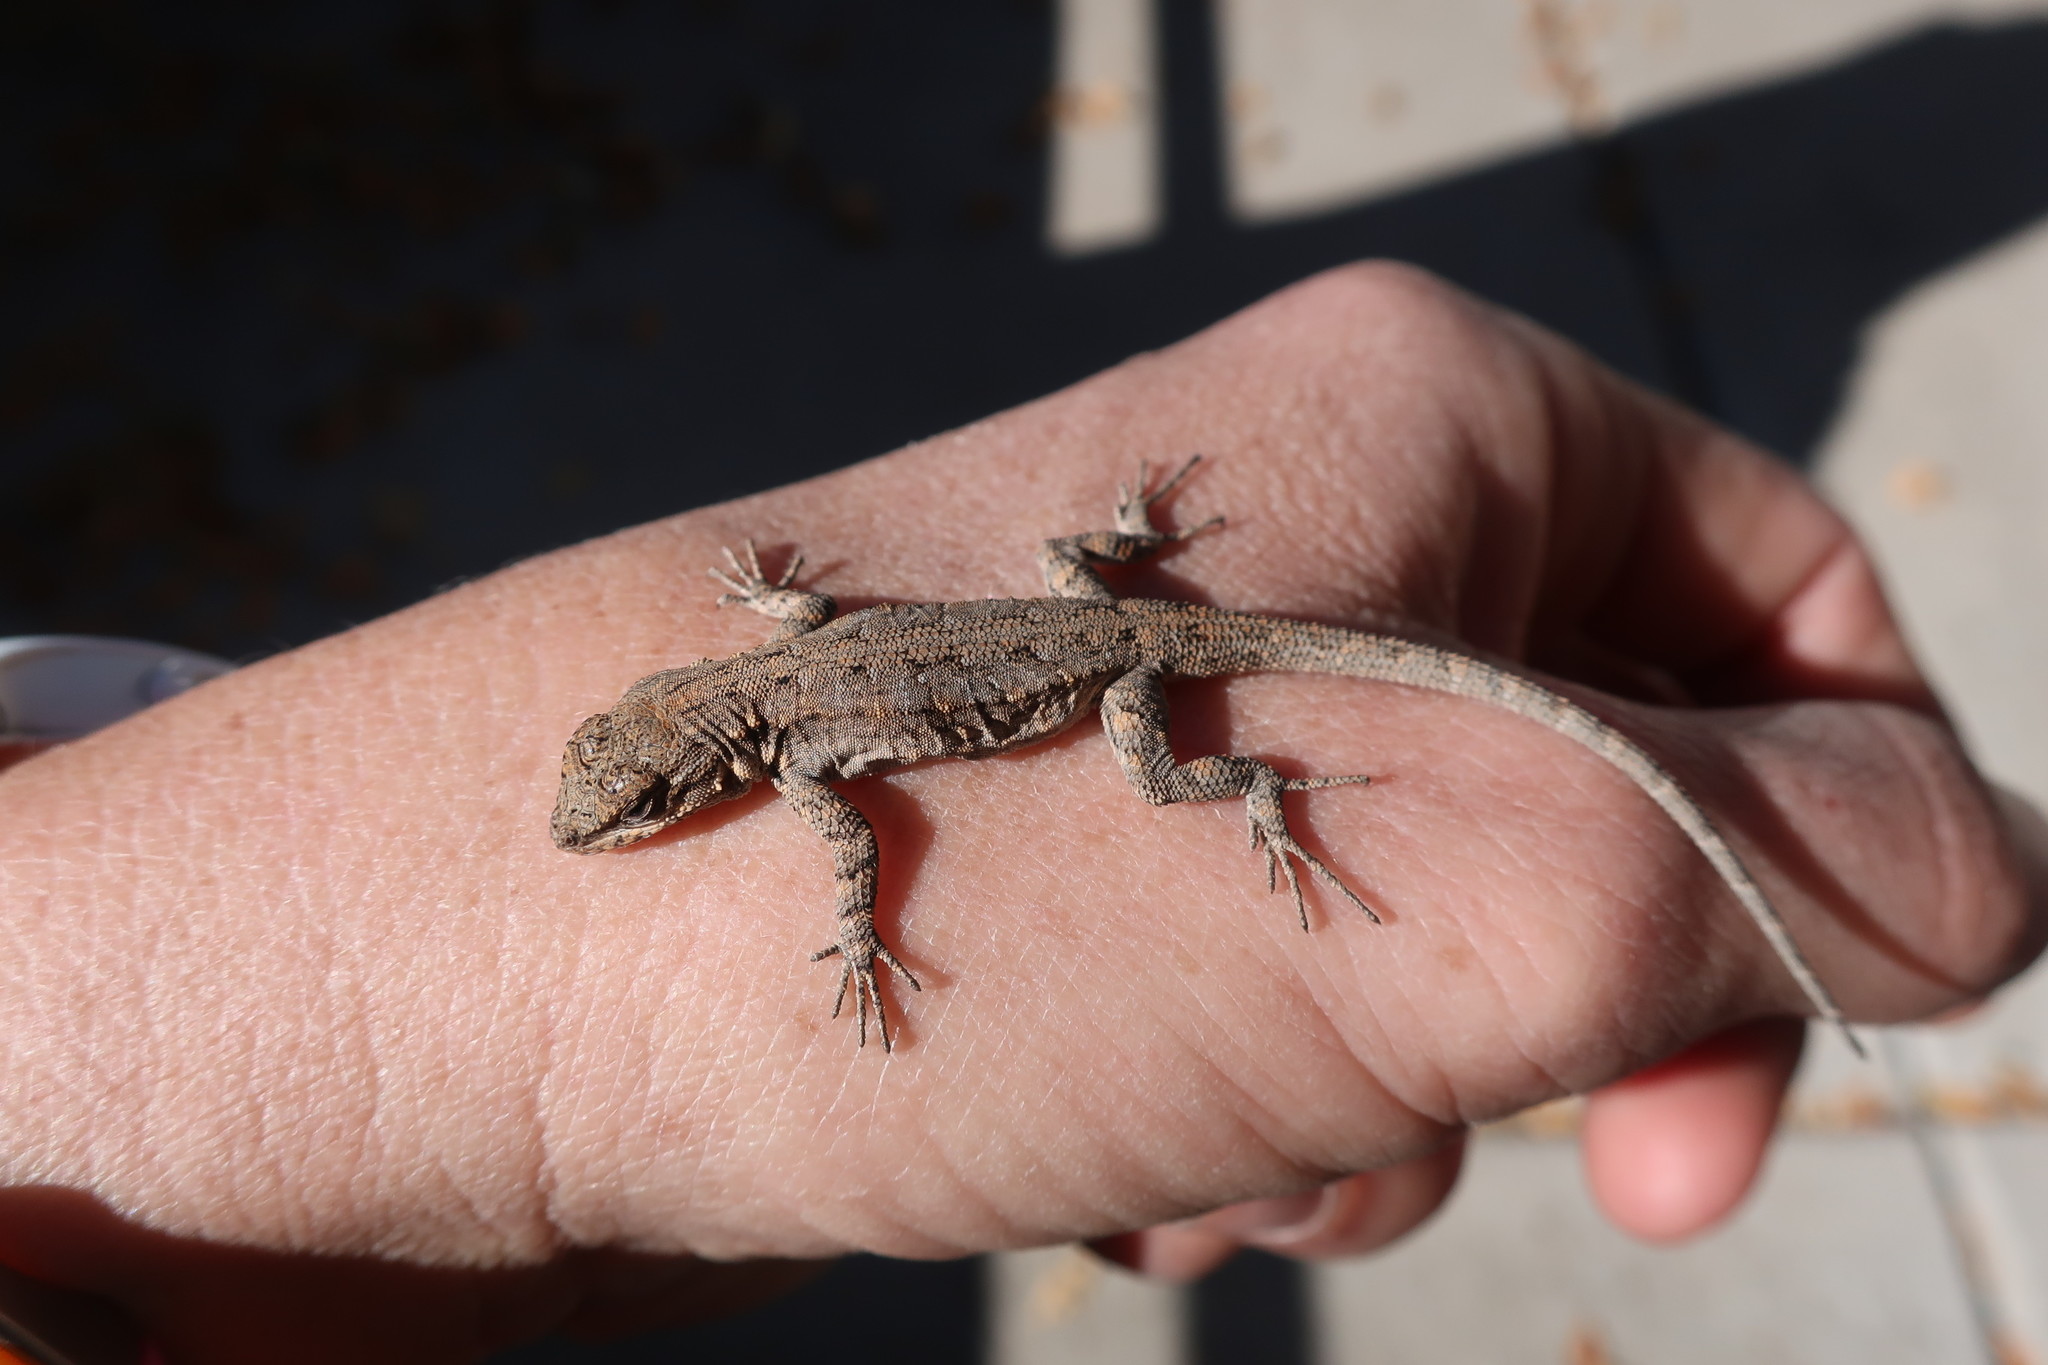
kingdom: Animalia
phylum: Chordata
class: Squamata
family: Phrynosomatidae
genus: Urosaurus
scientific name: Urosaurus ornatus
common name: Ornate tree lizard
